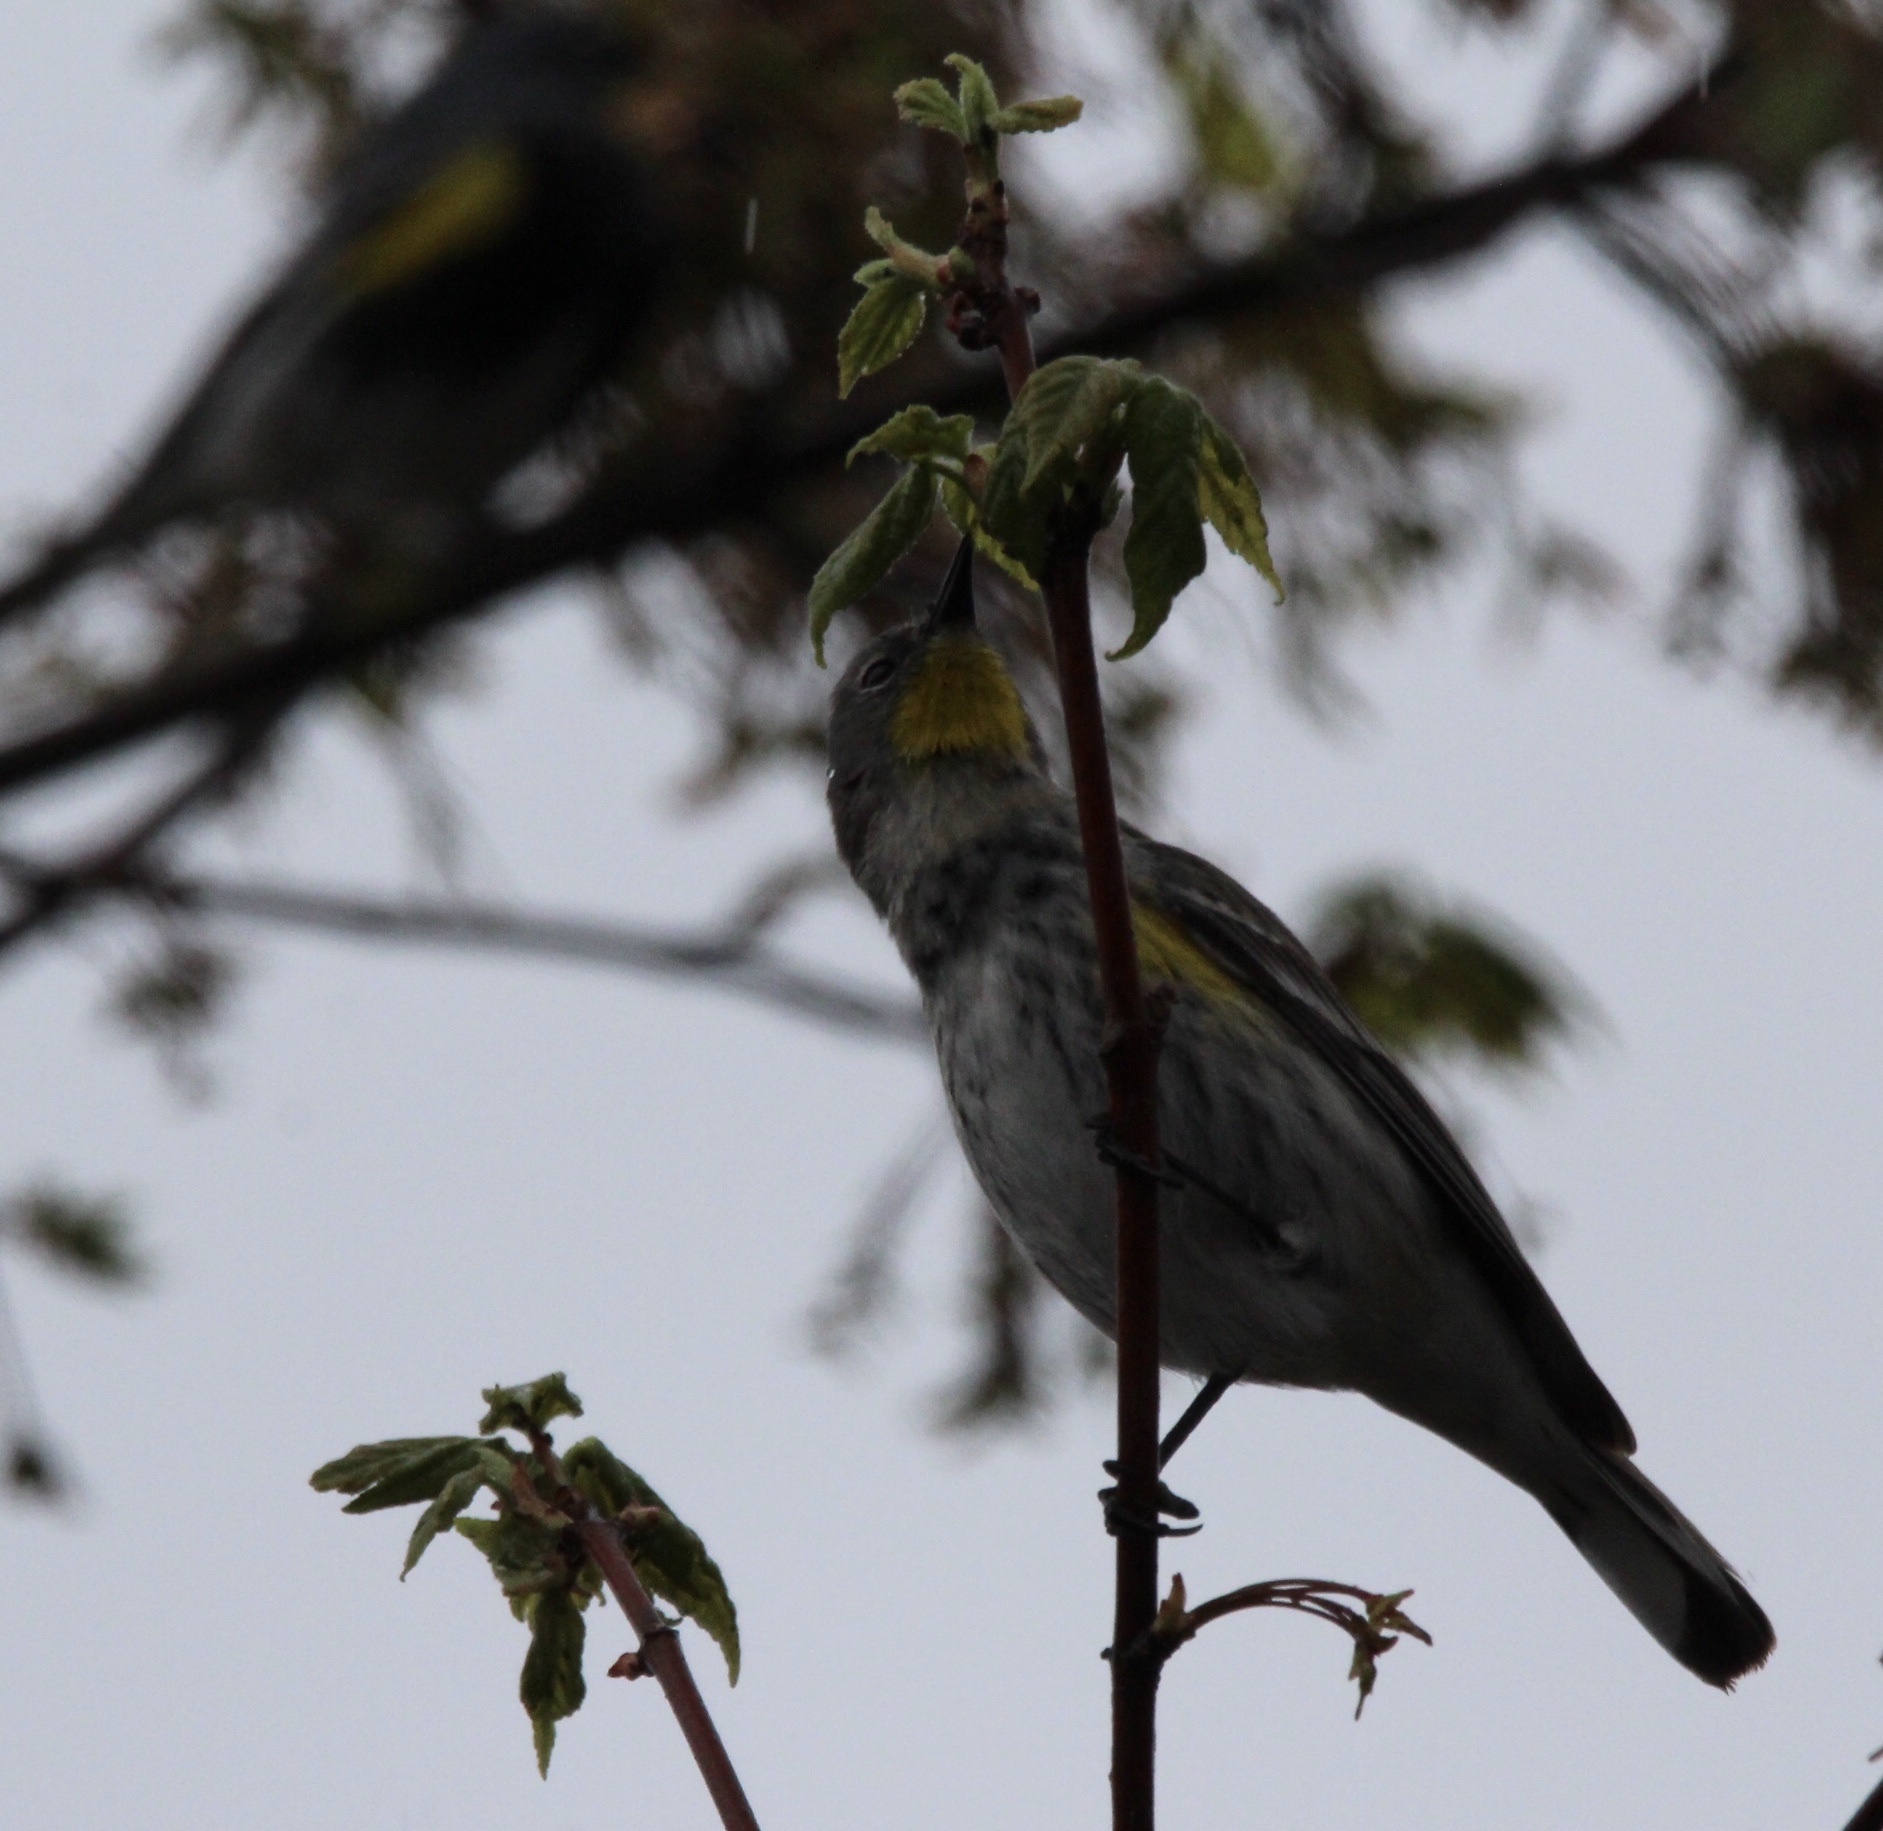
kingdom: Animalia
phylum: Chordata
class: Aves
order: Passeriformes
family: Parulidae
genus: Setophaga
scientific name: Setophaga auduboni
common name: Audubon's warbler
